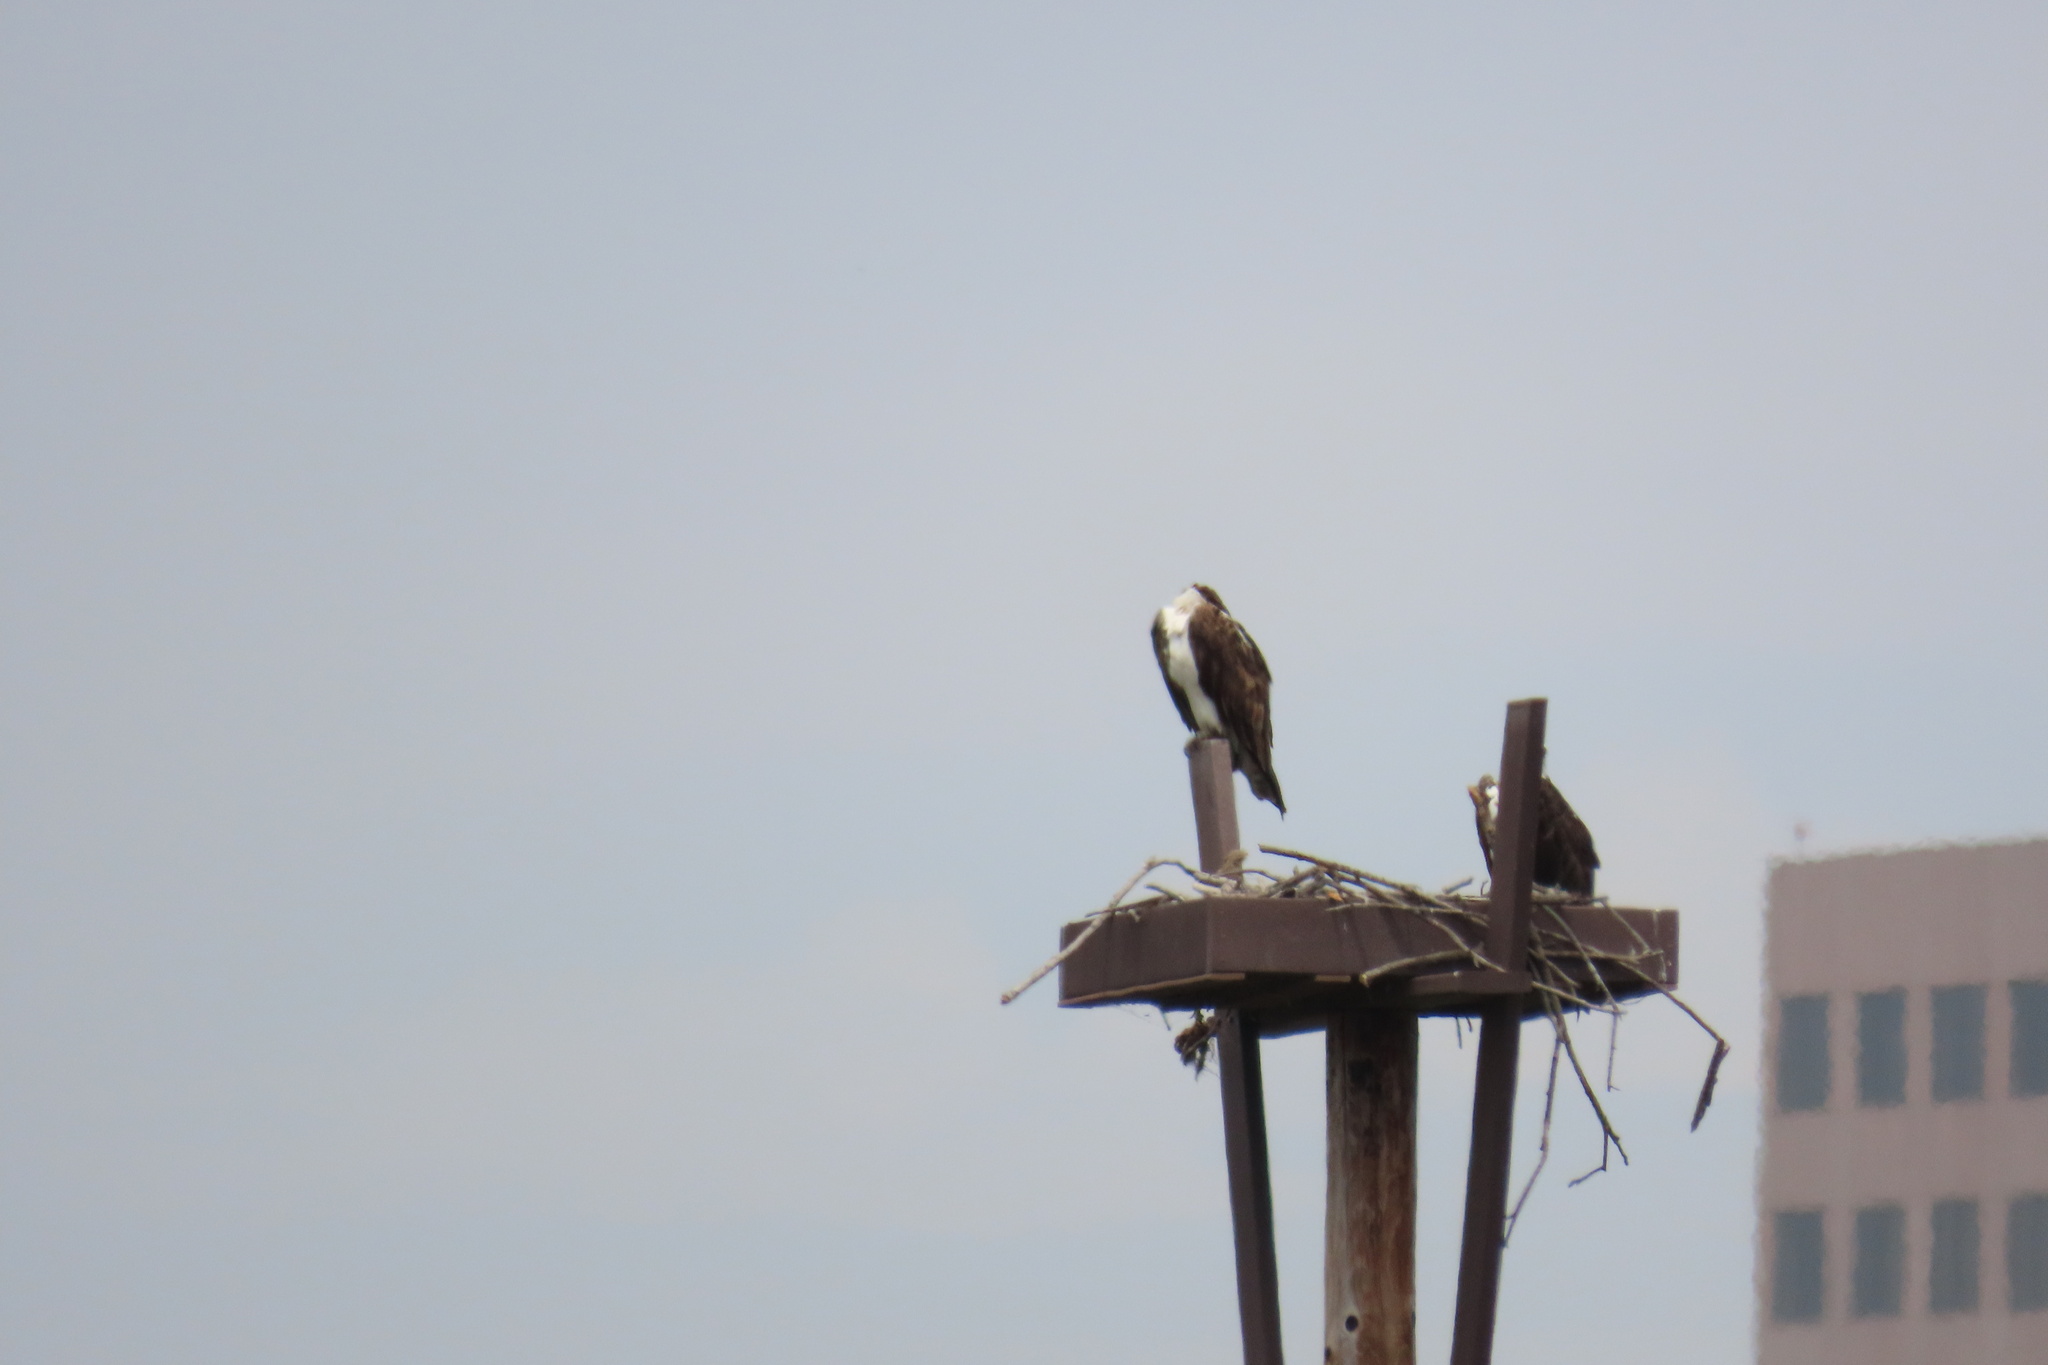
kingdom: Animalia
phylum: Chordata
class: Aves
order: Accipitriformes
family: Pandionidae
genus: Pandion
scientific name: Pandion haliaetus
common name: Osprey
